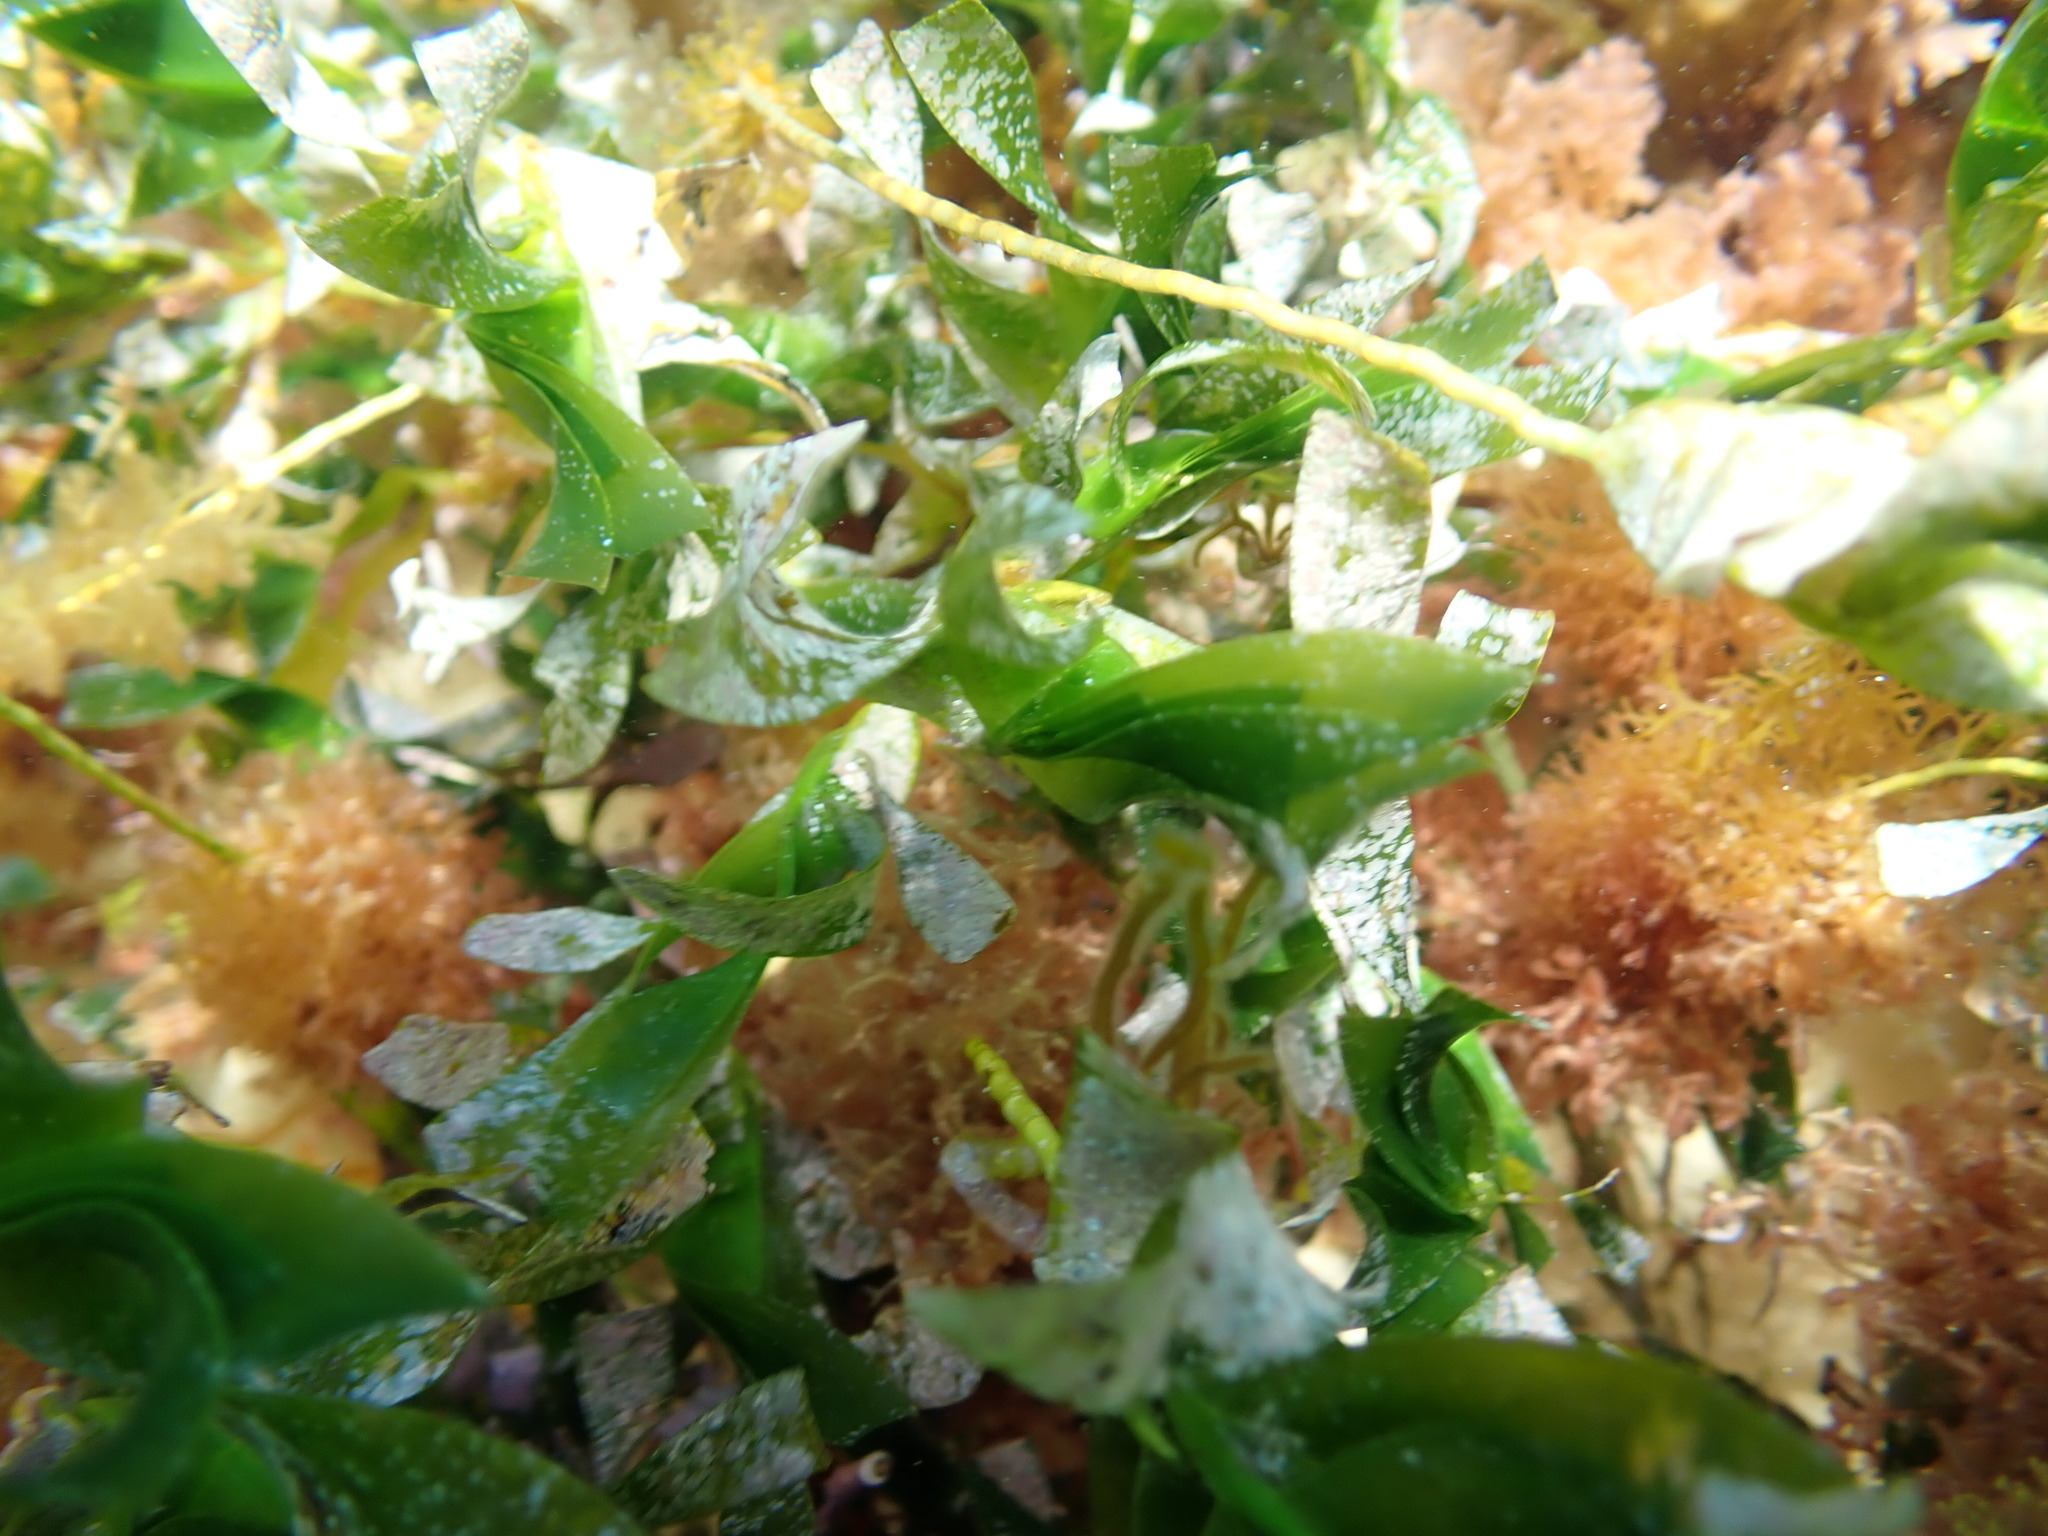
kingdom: Plantae
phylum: Tracheophyta
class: Liliopsida
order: Alismatales
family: Cymodoceaceae
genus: Amphibolis
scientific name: Amphibolis antarctica
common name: Species code: aa
